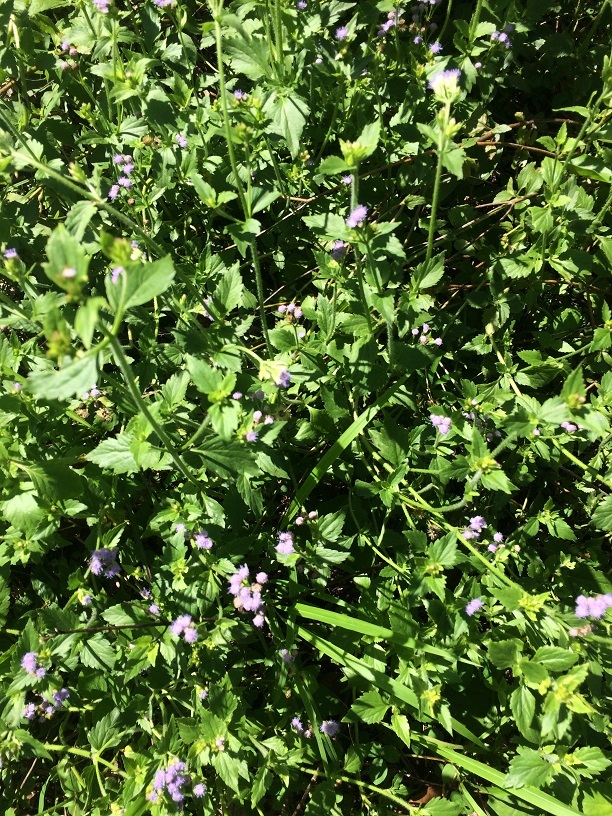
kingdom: Plantae
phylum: Tracheophyta
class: Magnoliopsida
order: Asterales
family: Asteraceae
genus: Praxelis
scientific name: Praxelis clematidea
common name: Praxelis
